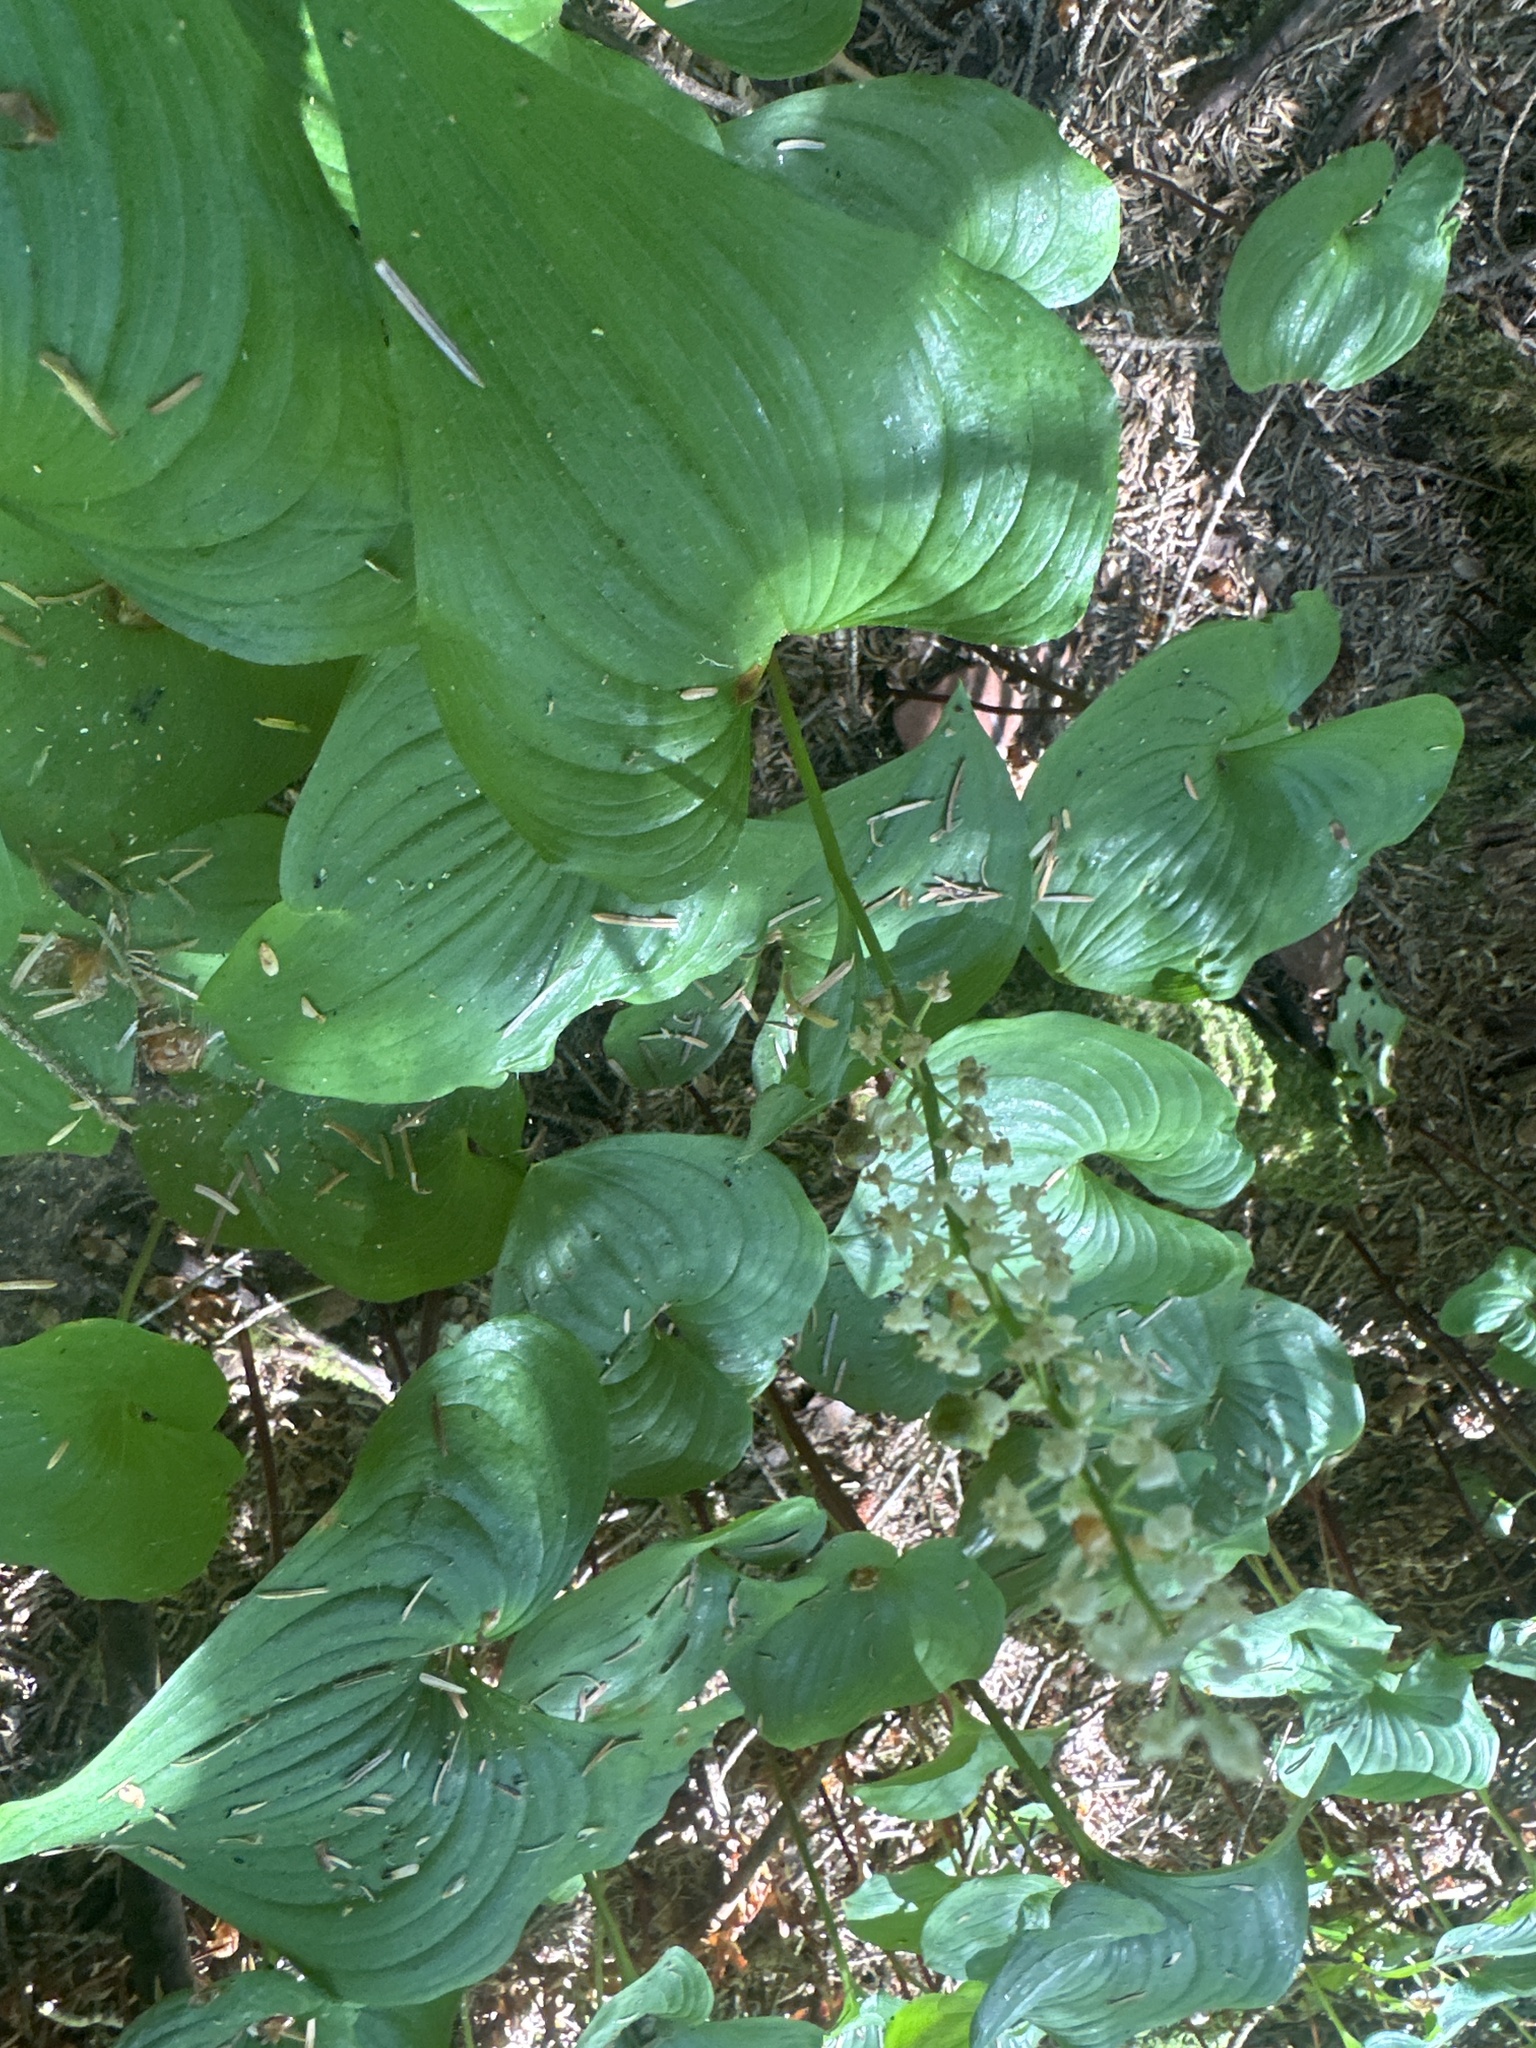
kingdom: Plantae
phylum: Tracheophyta
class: Liliopsida
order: Asparagales
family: Asparagaceae
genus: Maianthemum
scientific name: Maianthemum dilatatum
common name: False lily-of-the-valley
